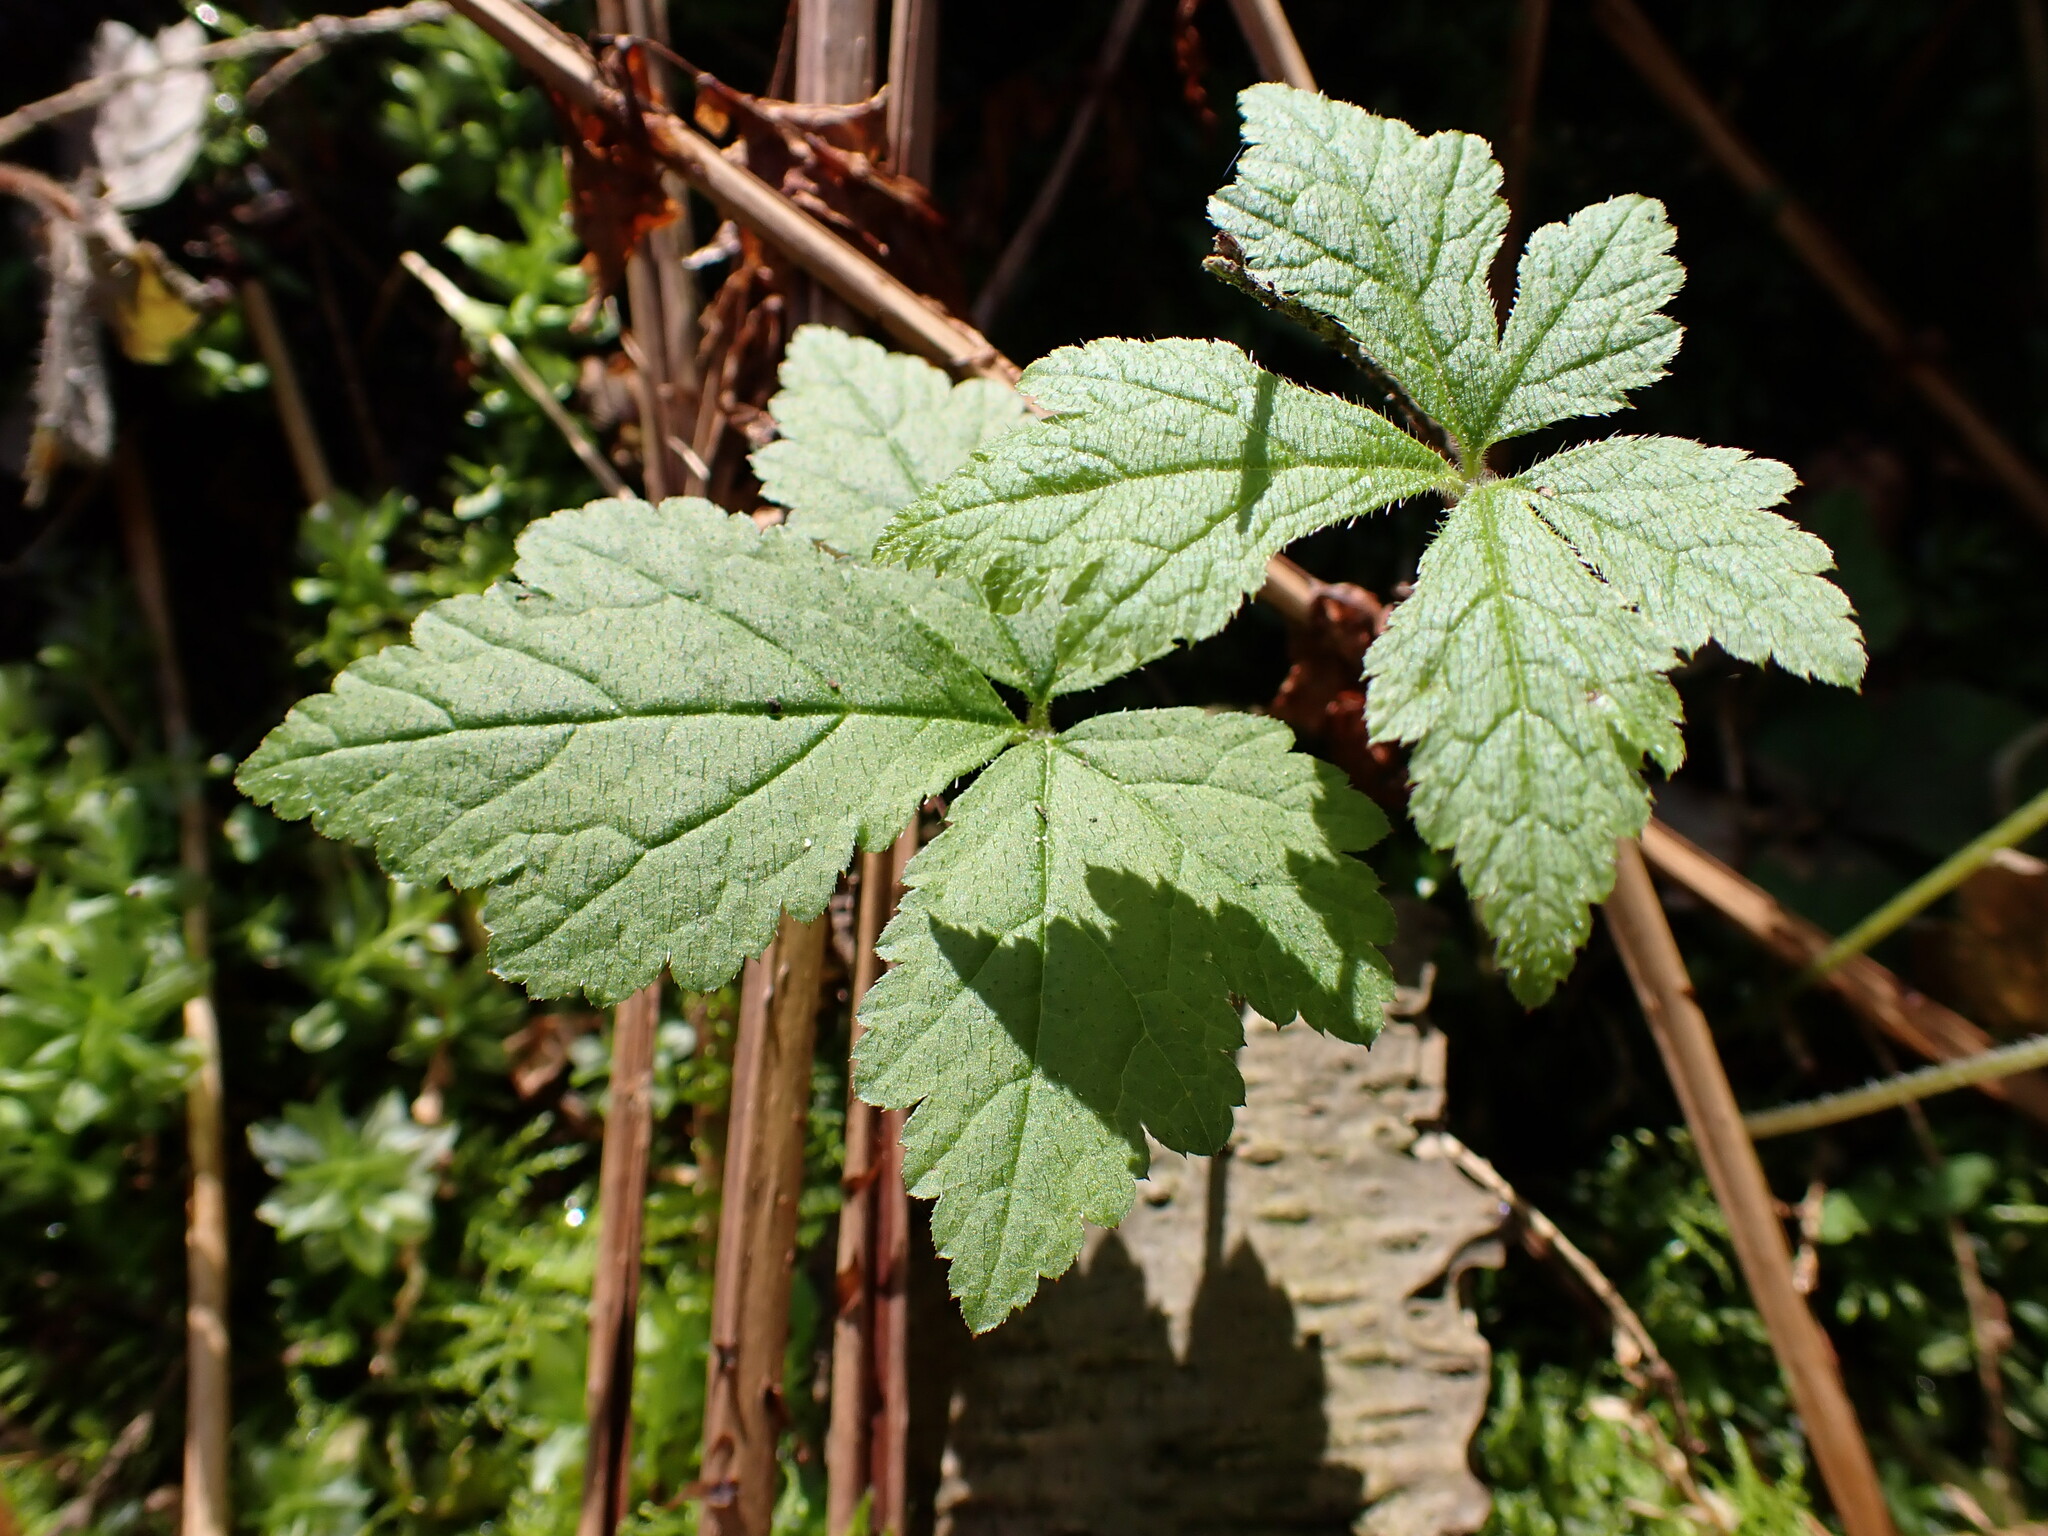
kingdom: Plantae
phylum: Tracheophyta
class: Magnoliopsida
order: Saxifragales
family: Saxifragaceae
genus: Tiarella
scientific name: Tiarella trifoliata
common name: Sugar-scoop
